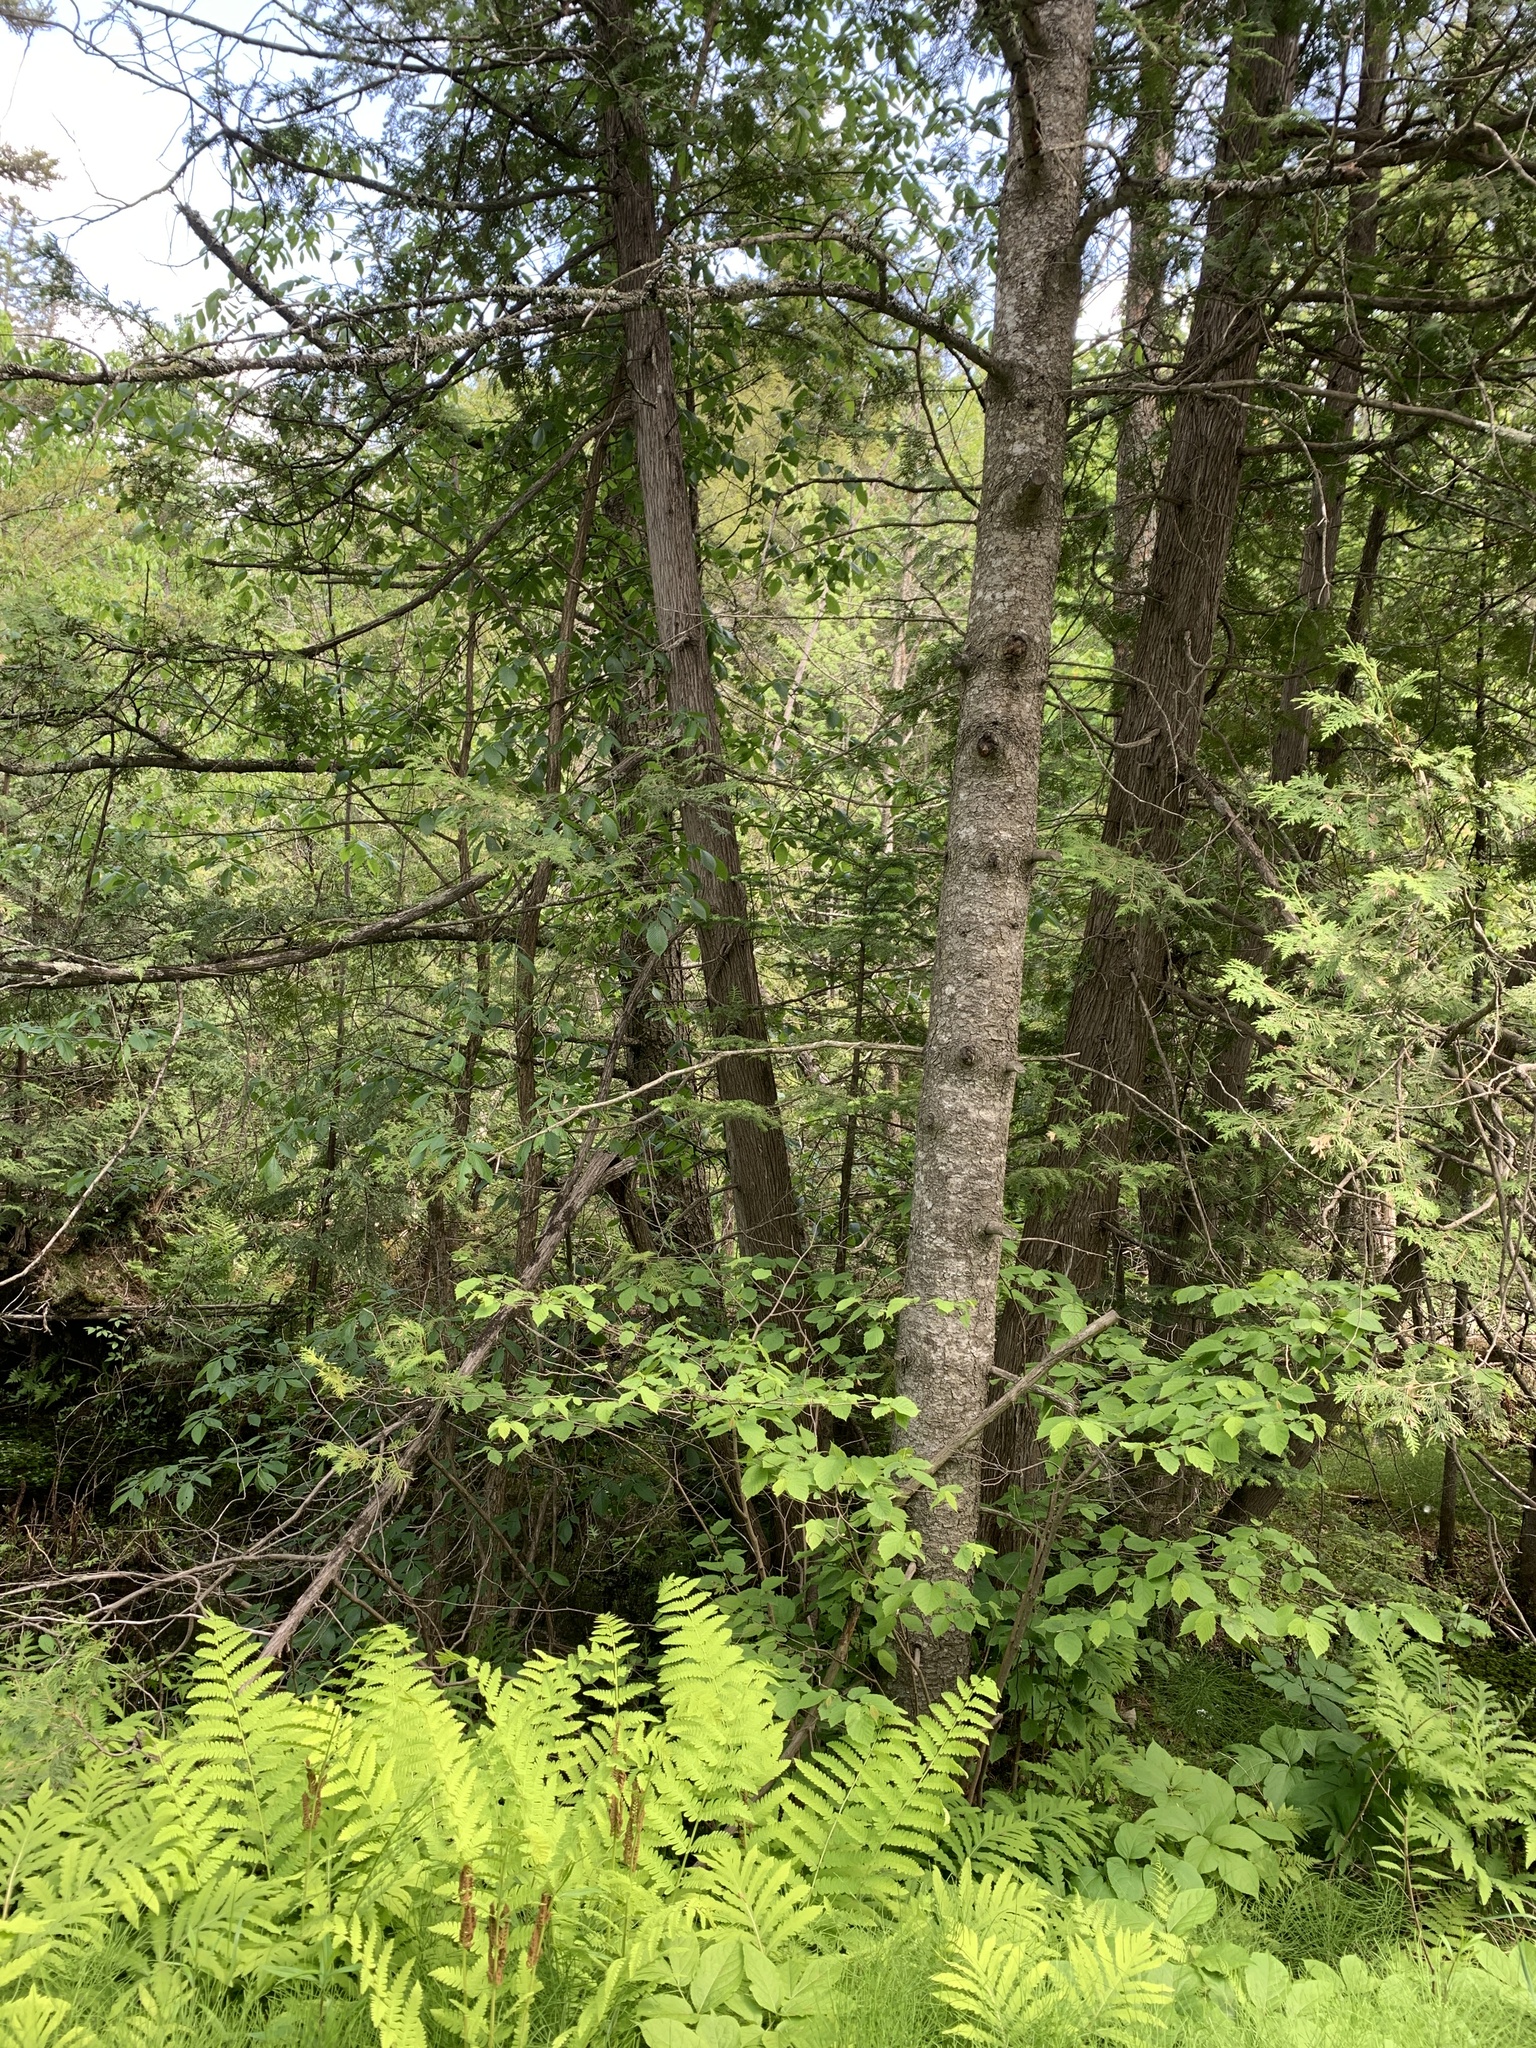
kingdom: Plantae
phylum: Tracheophyta
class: Pinopsida
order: Pinales
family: Cupressaceae
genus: Thuja
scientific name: Thuja occidentalis
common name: Northern white-cedar
